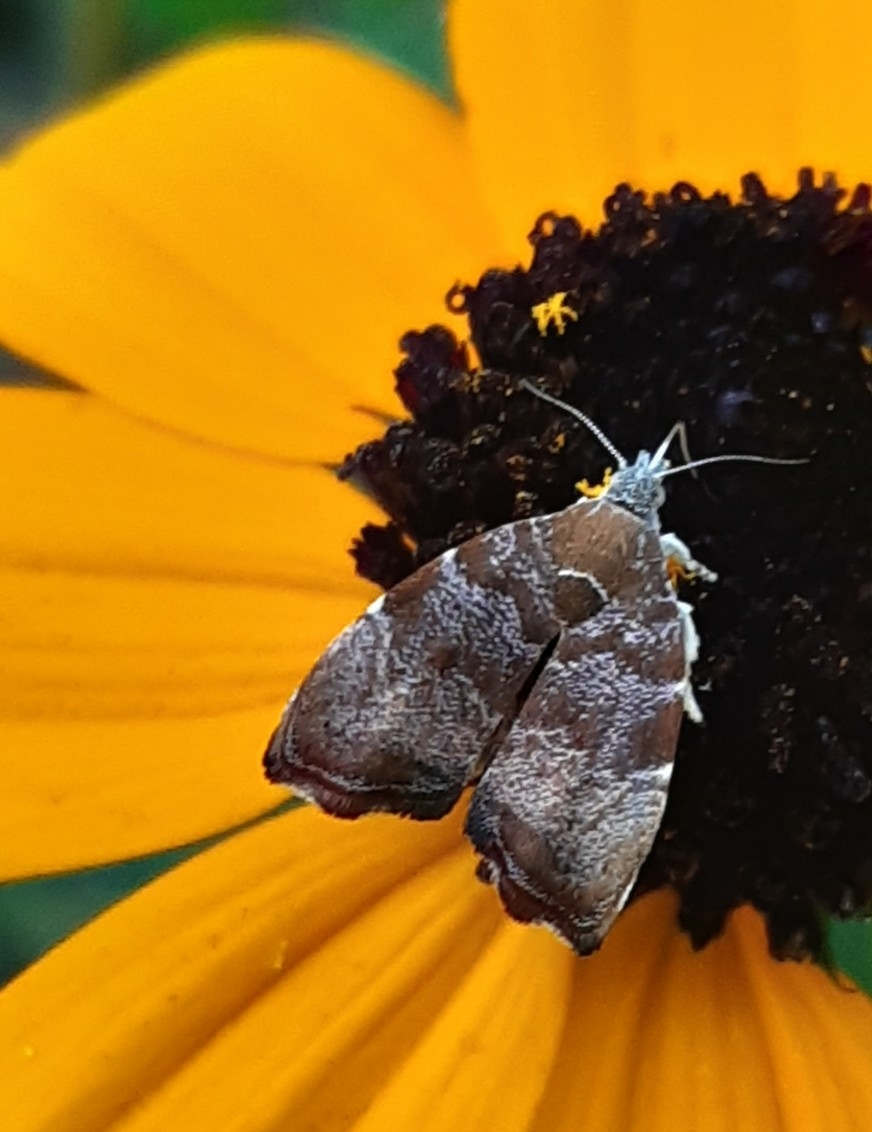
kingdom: Animalia
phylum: Arthropoda
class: Insecta
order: Lepidoptera
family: Choreutidae
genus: Anthophila
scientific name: Anthophila nemorana
